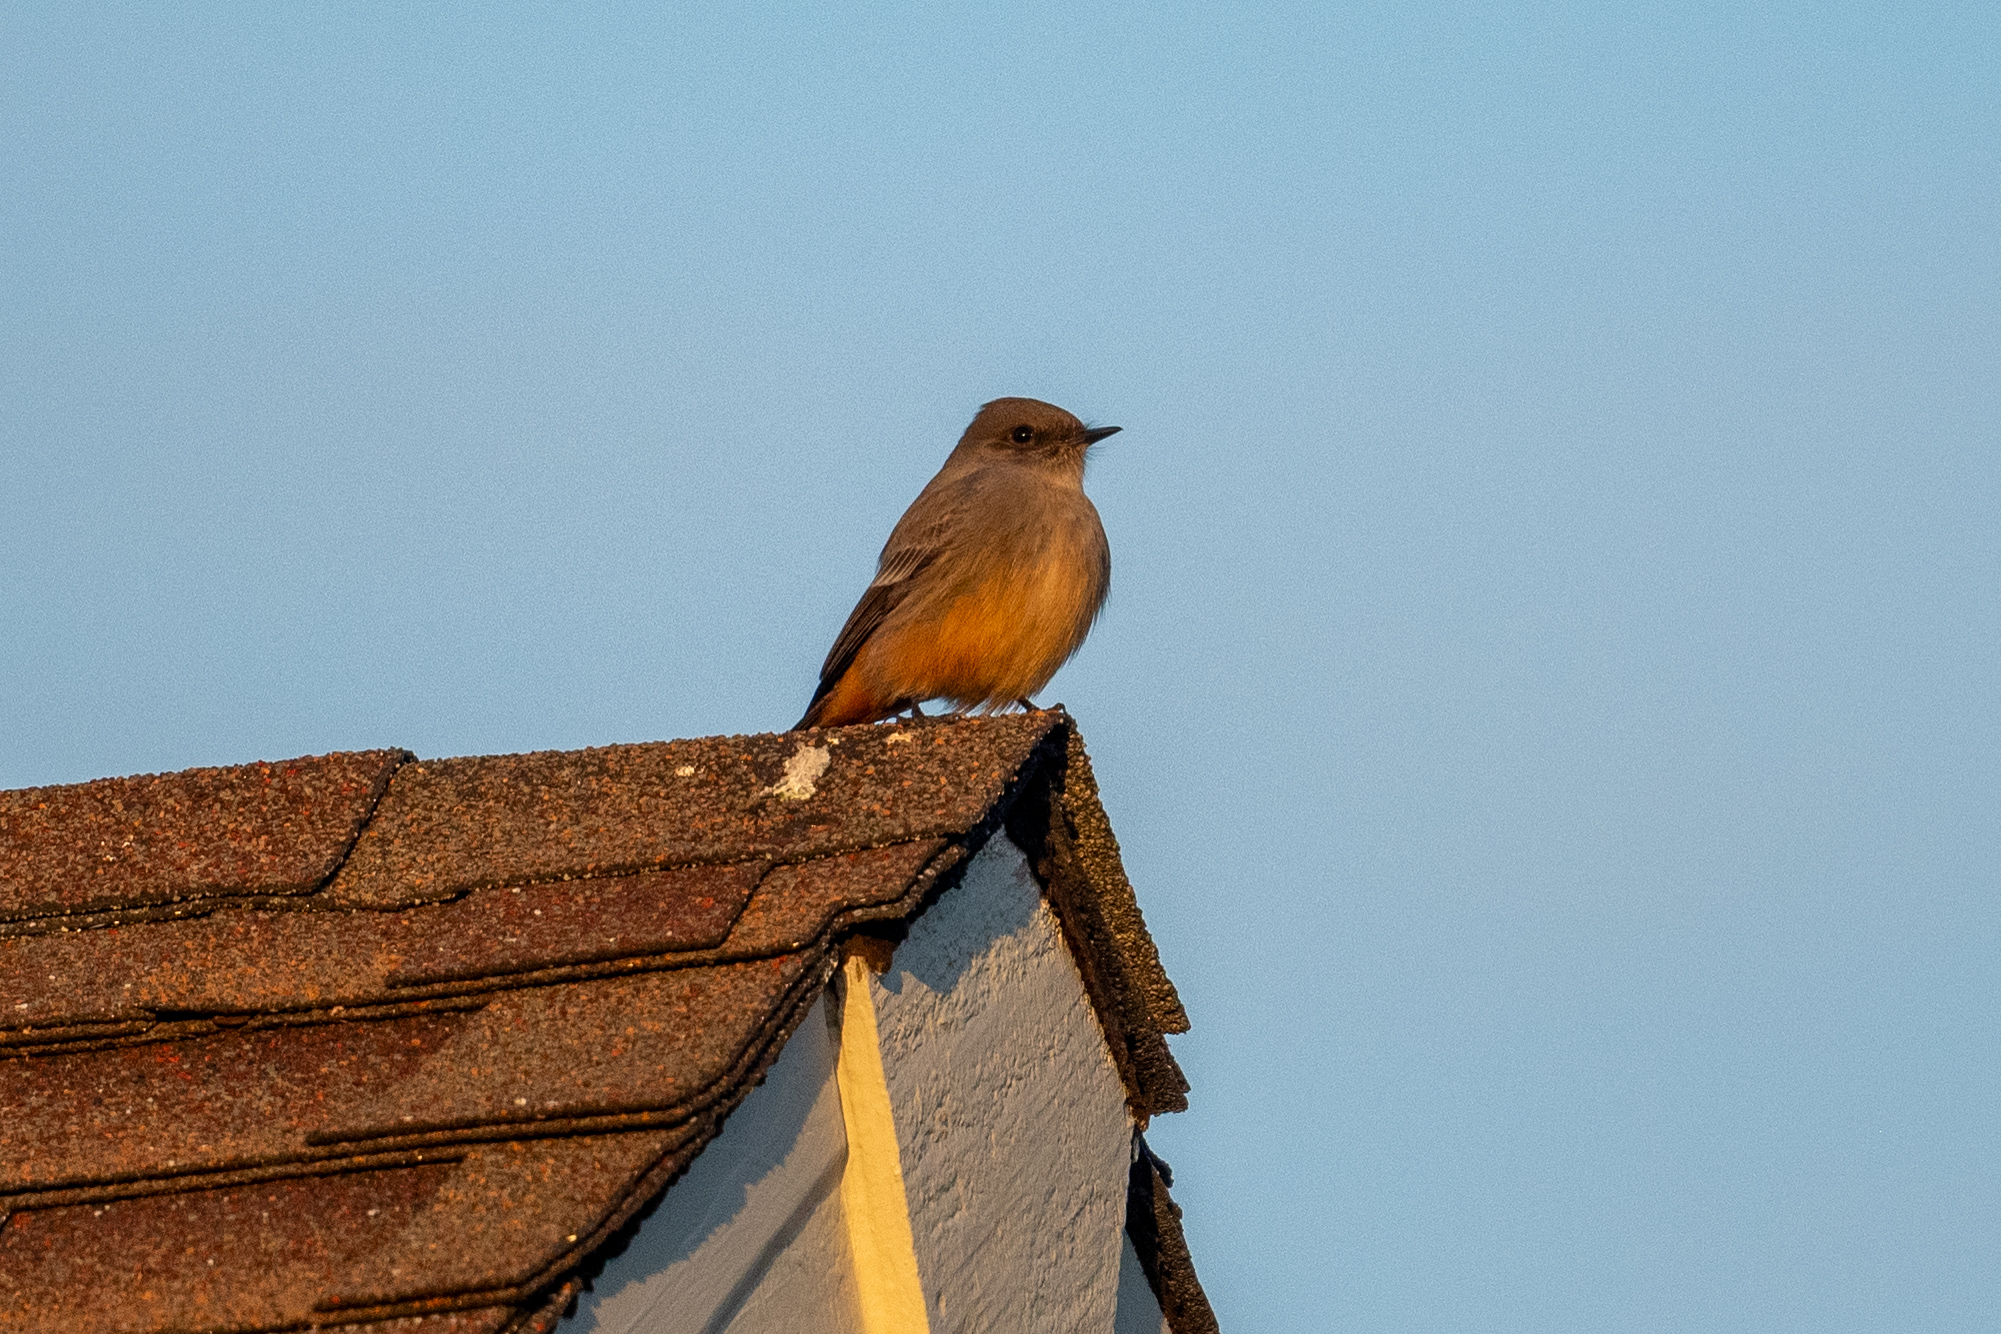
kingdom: Animalia
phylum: Chordata
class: Aves
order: Passeriformes
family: Tyrannidae
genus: Sayornis
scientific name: Sayornis saya
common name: Say's phoebe
